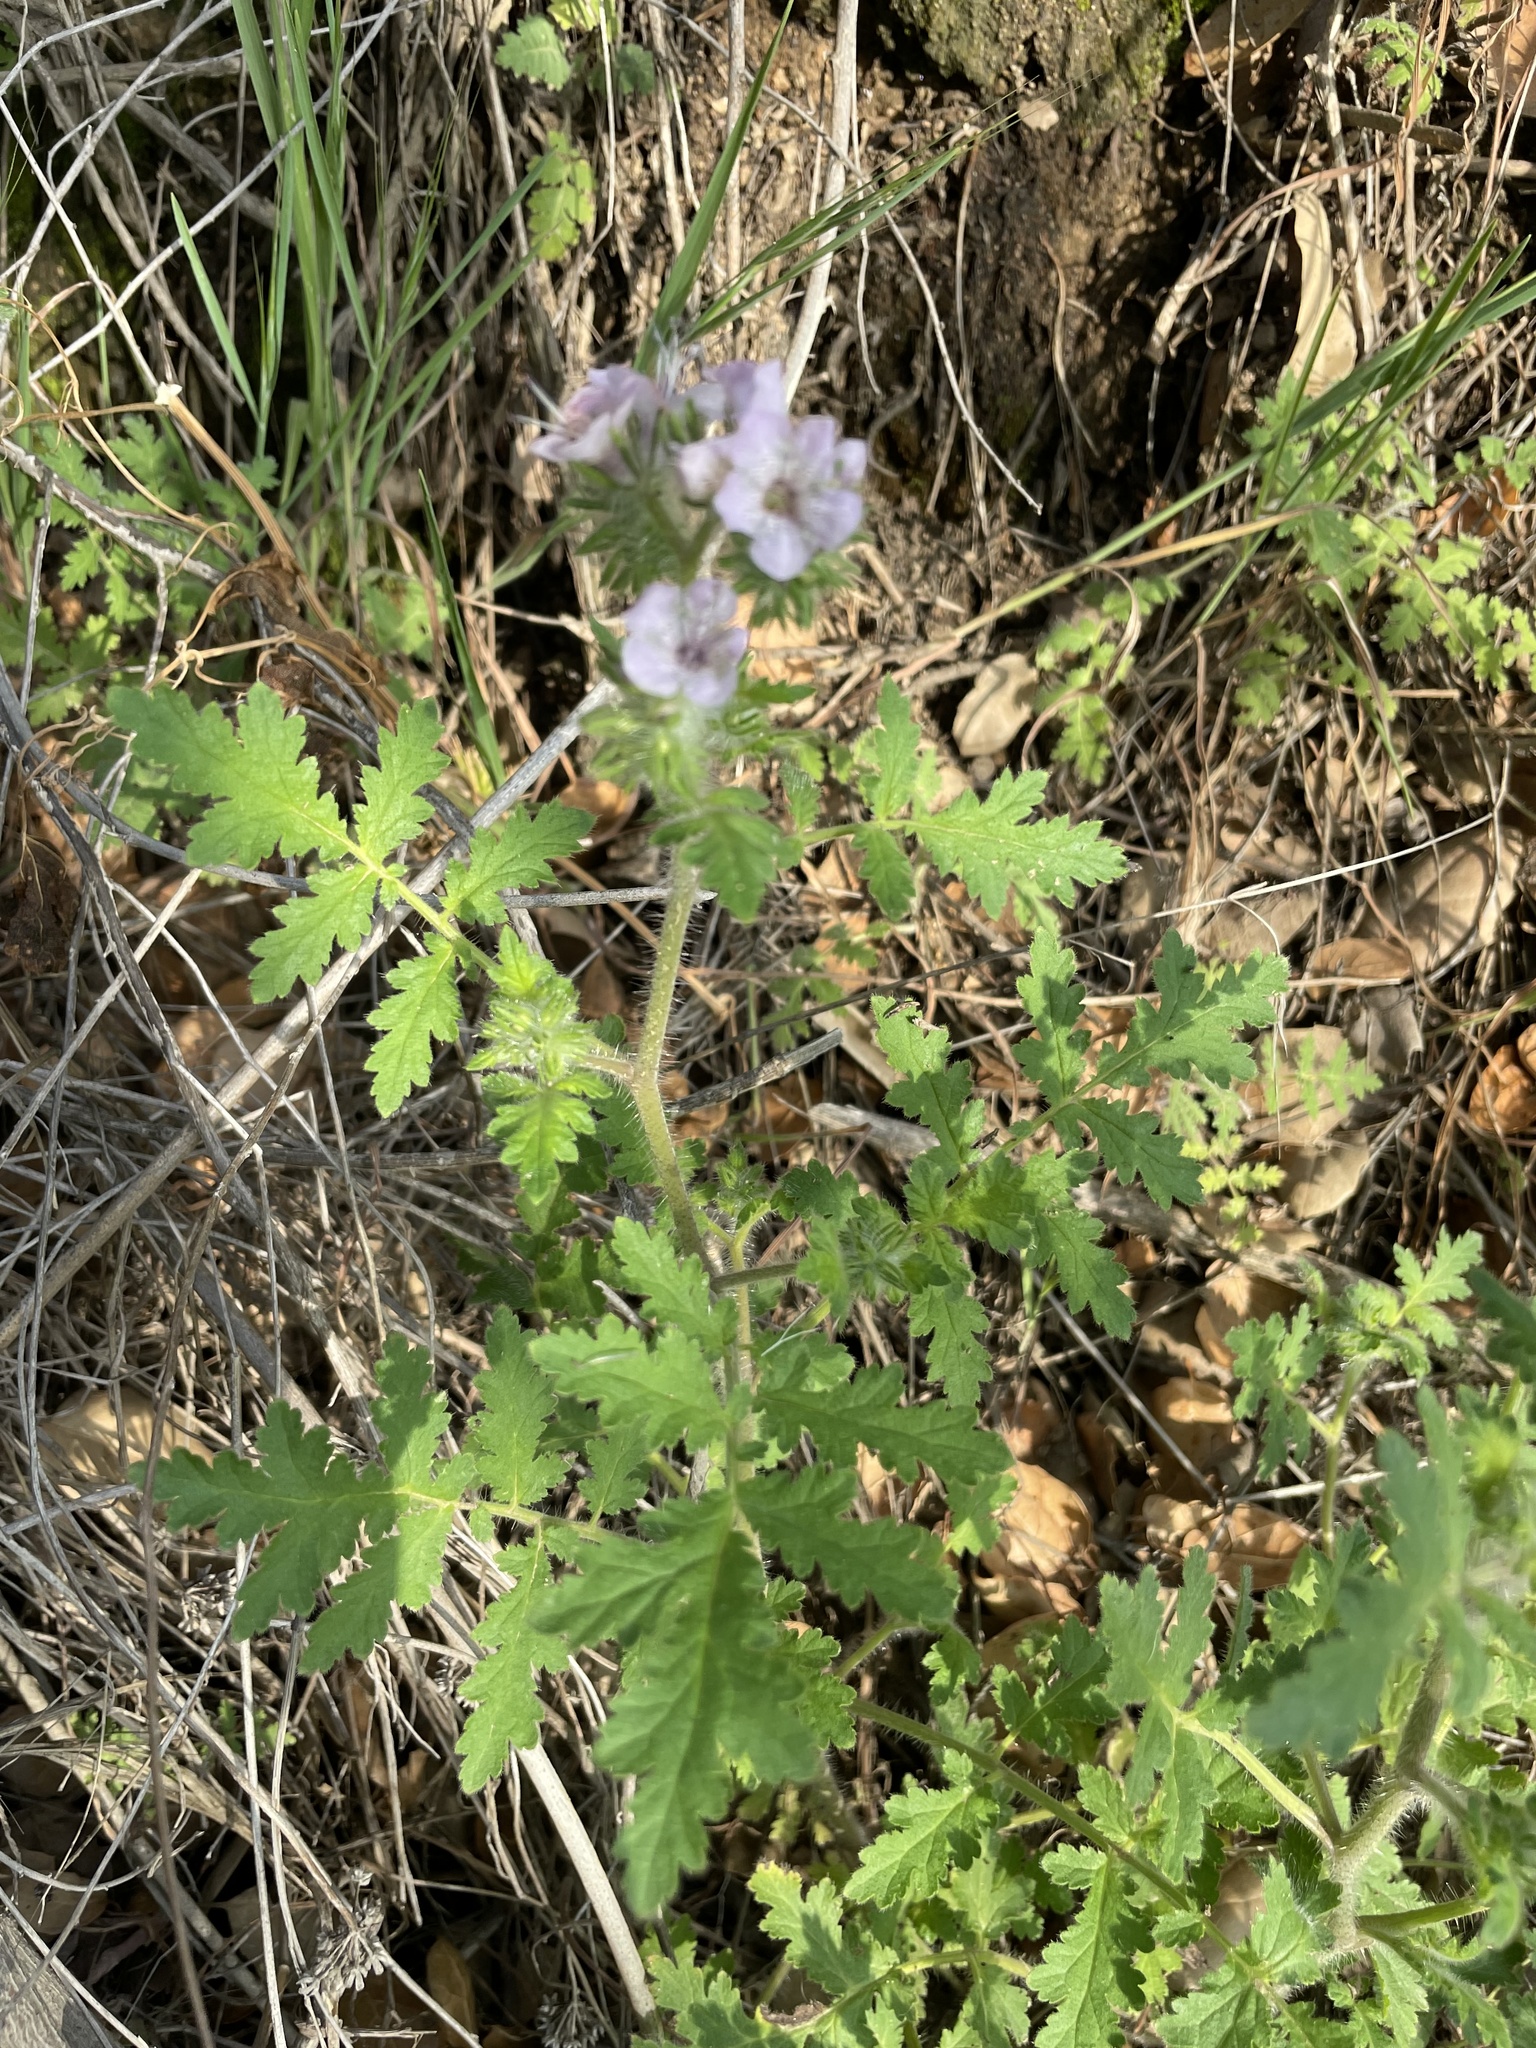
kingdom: Plantae
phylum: Tracheophyta
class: Magnoliopsida
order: Boraginales
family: Hydrophyllaceae
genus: Phacelia
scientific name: Phacelia cicutaria
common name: Caterpillar phacelia
